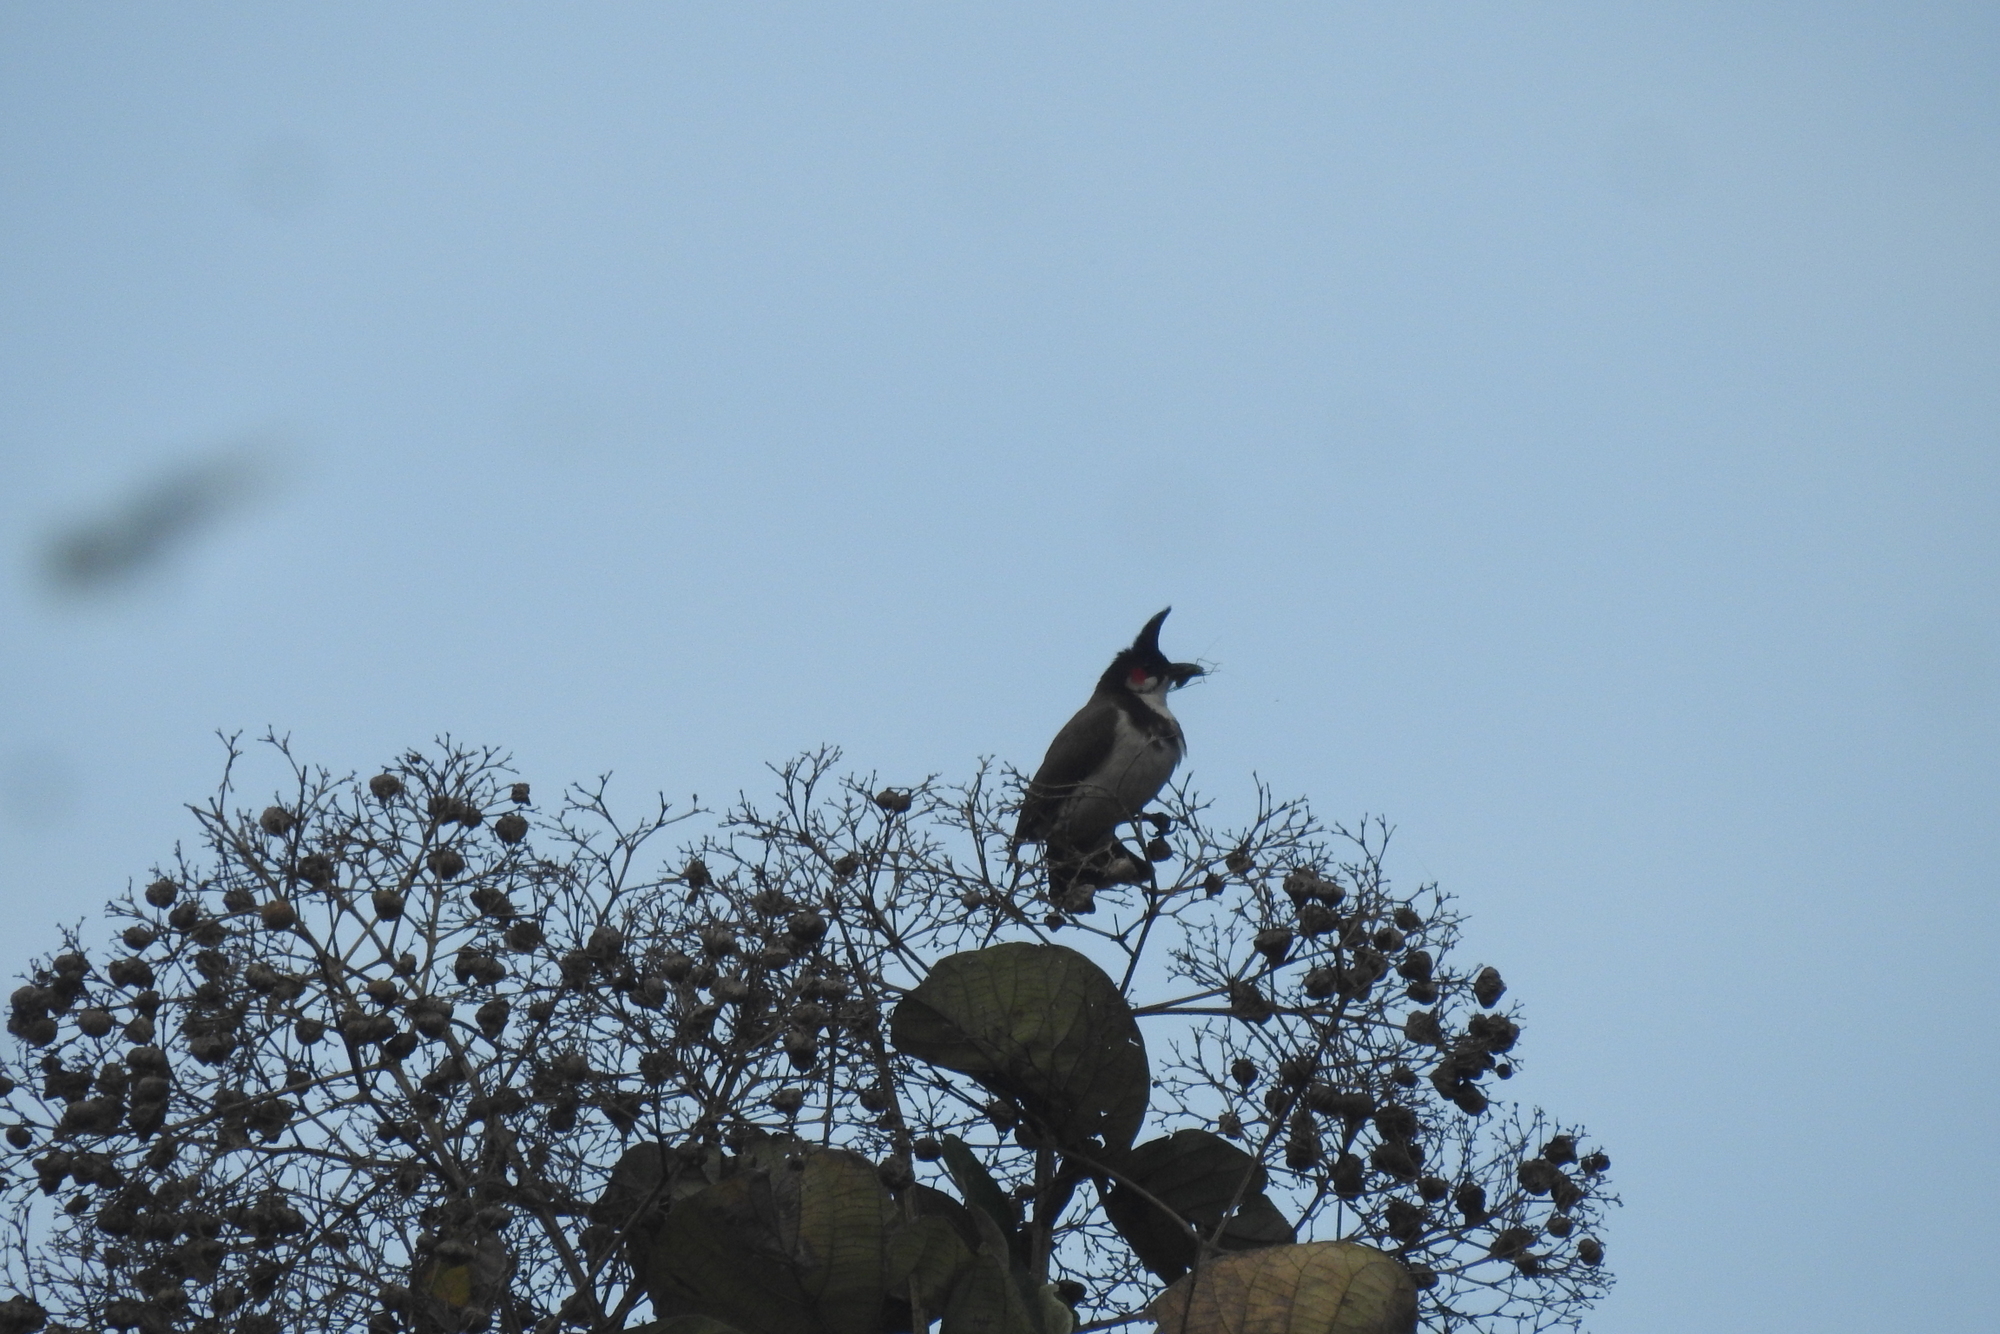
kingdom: Animalia
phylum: Chordata
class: Aves
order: Passeriformes
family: Pycnonotidae
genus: Pycnonotus
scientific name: Pycnonotus jocosus
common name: Red-whiskered bulbul
